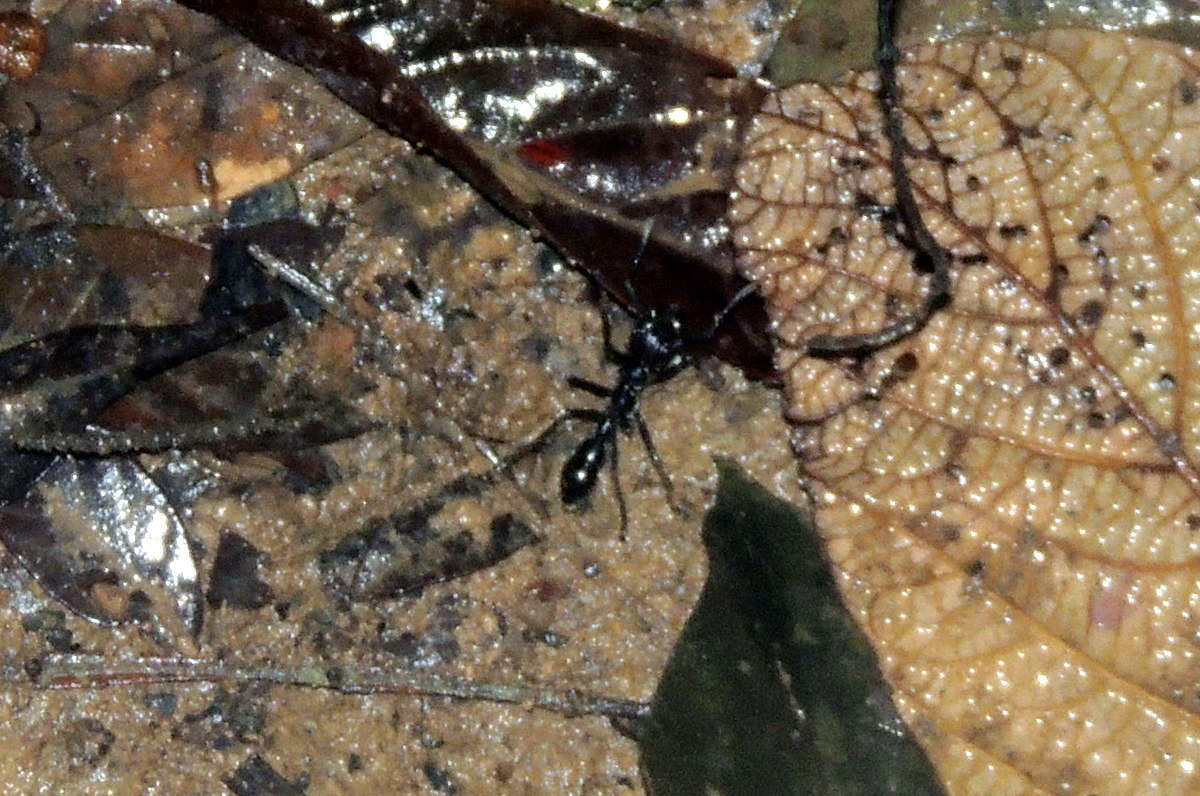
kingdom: Animalia
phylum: Arthropoda
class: Insecta
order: Hymenoptera
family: Formicidae
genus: Paraponera
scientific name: Paraponera clavata
